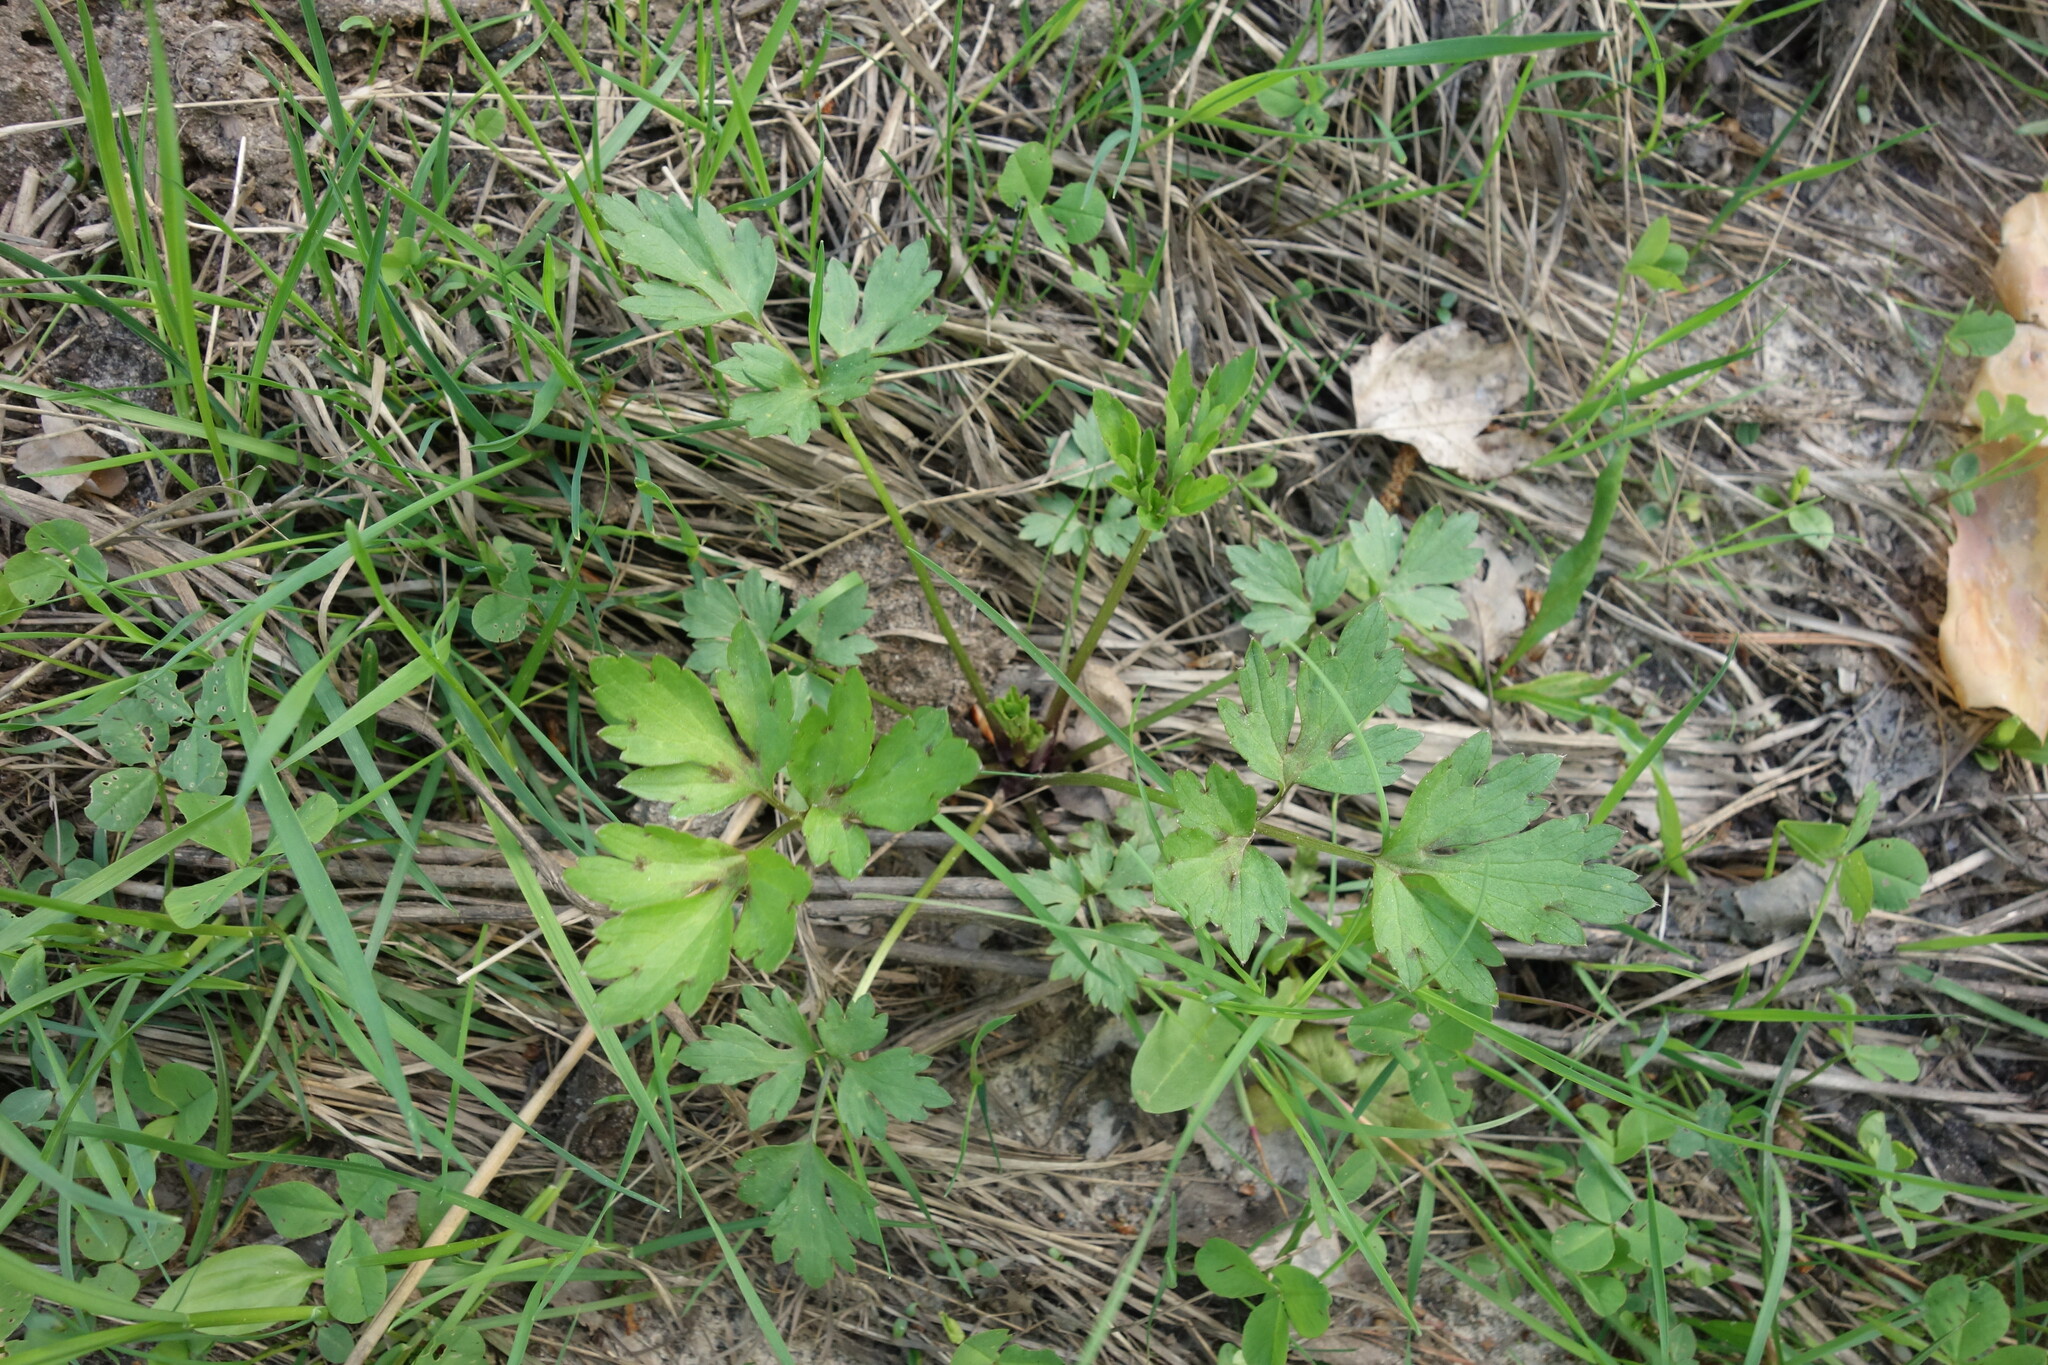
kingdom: Plantae
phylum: Tracheophyta
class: Magnoliopsida
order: Ranunculales
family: Ranunculaceae
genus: Ranunculus
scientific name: Ranunculus repens
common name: Creeping buttercup
